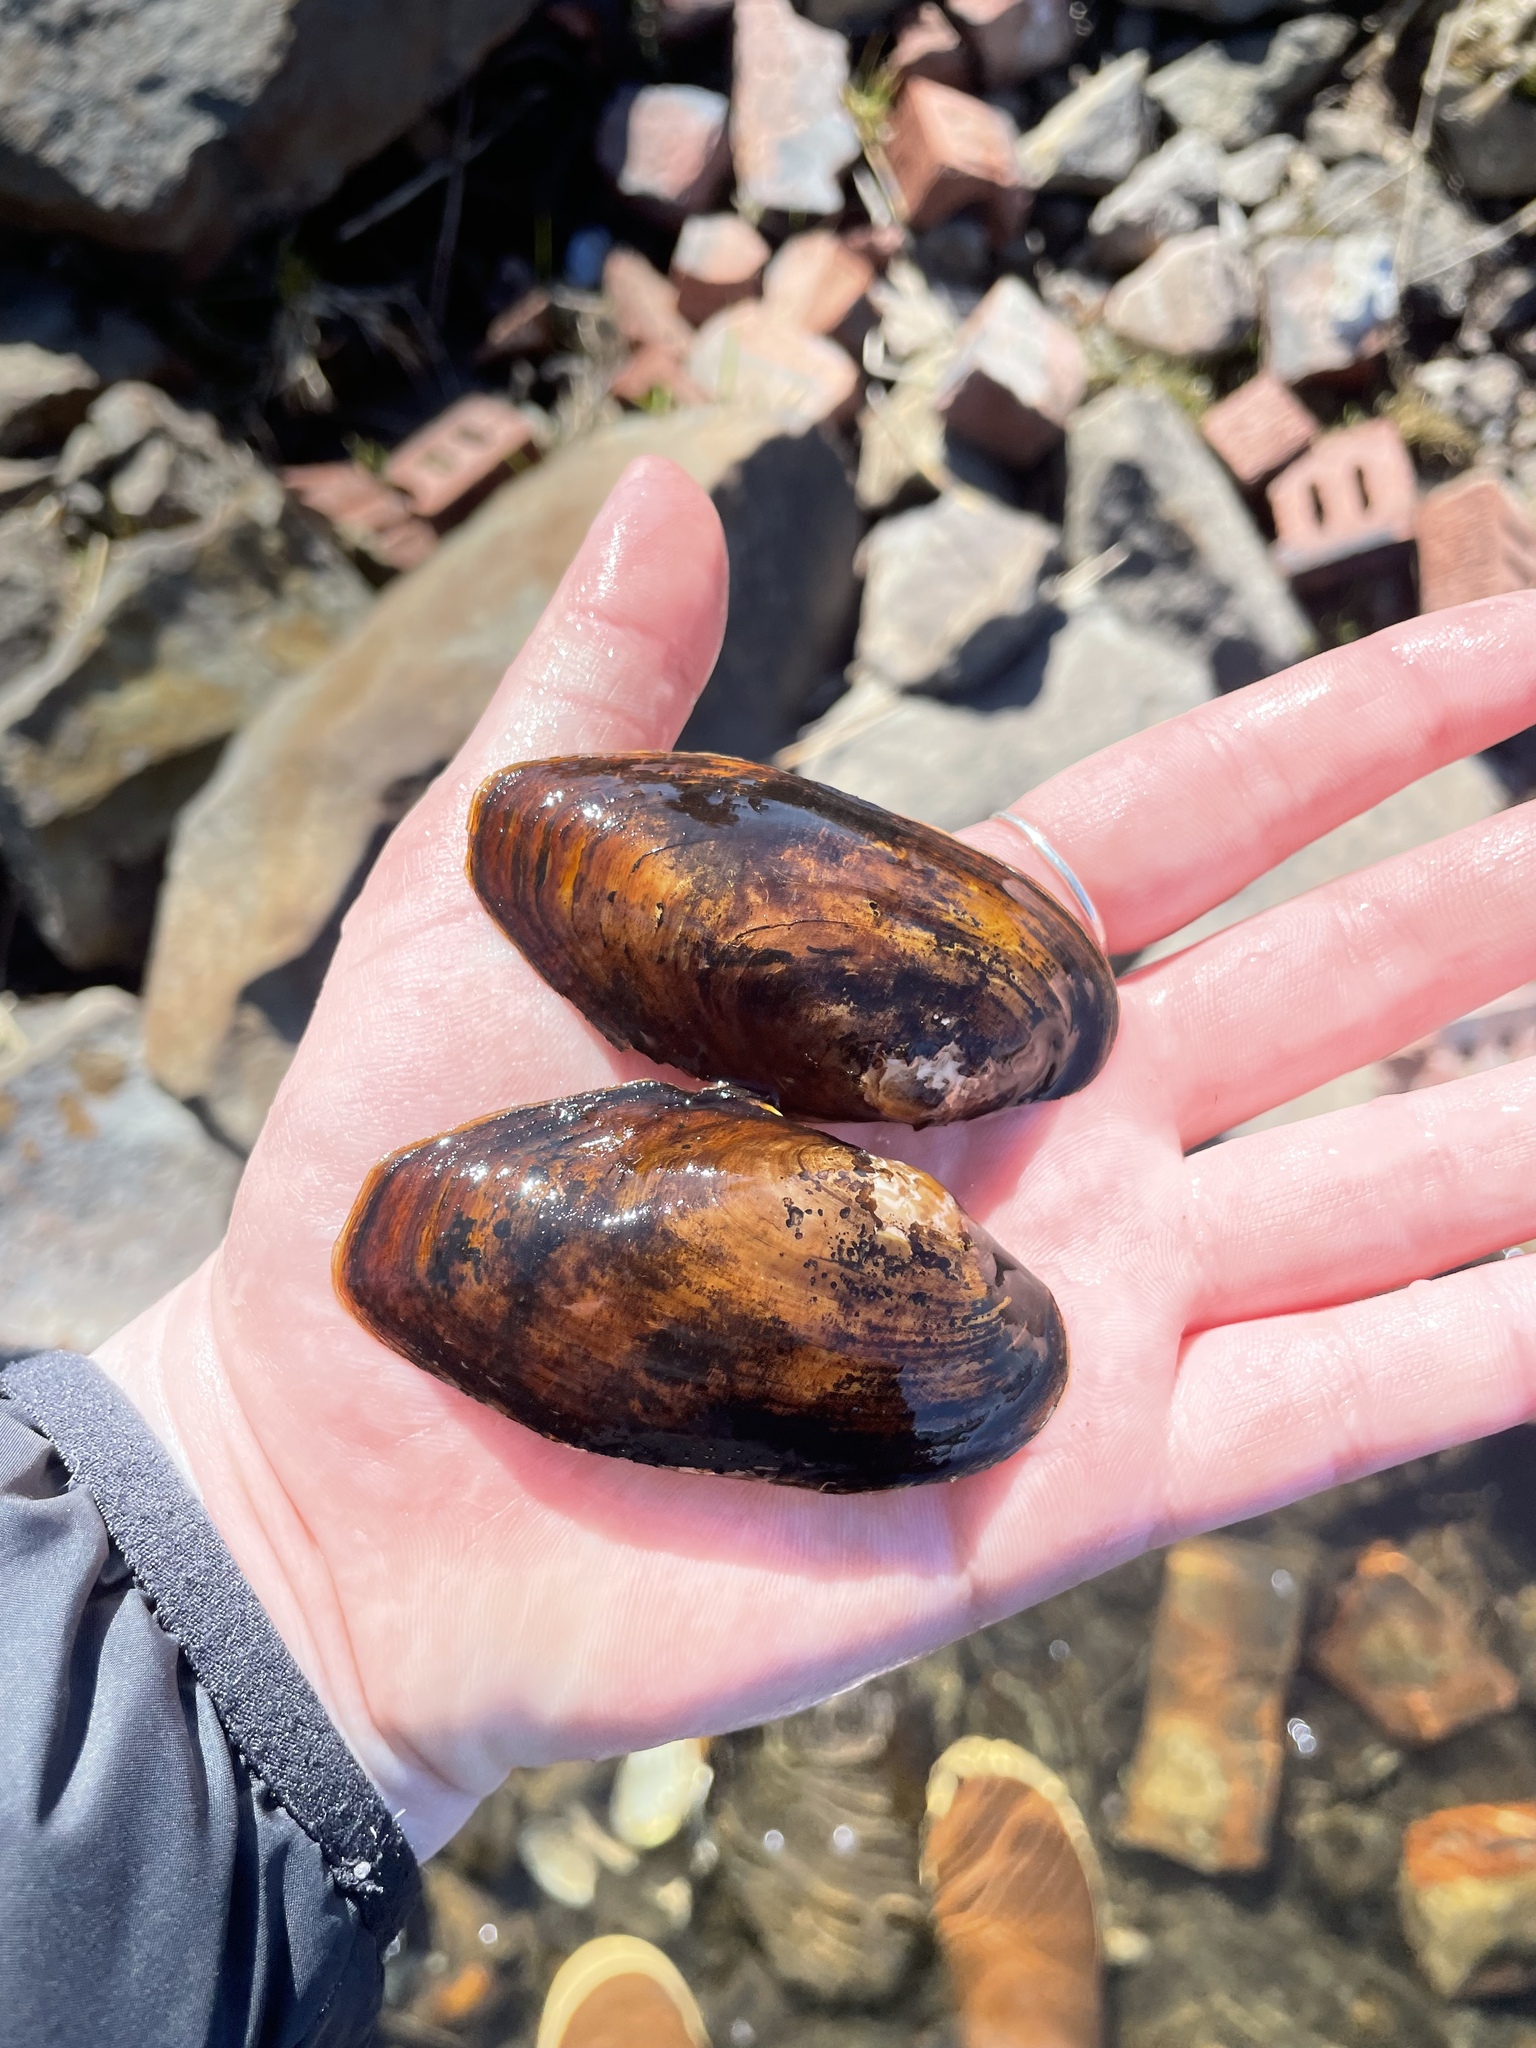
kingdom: Animalia
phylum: Mollusca
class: Bivalvia
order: Unionida
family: Unionidae
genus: Utterbackiana
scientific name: Utterbackiana implicata
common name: Alewife floater
